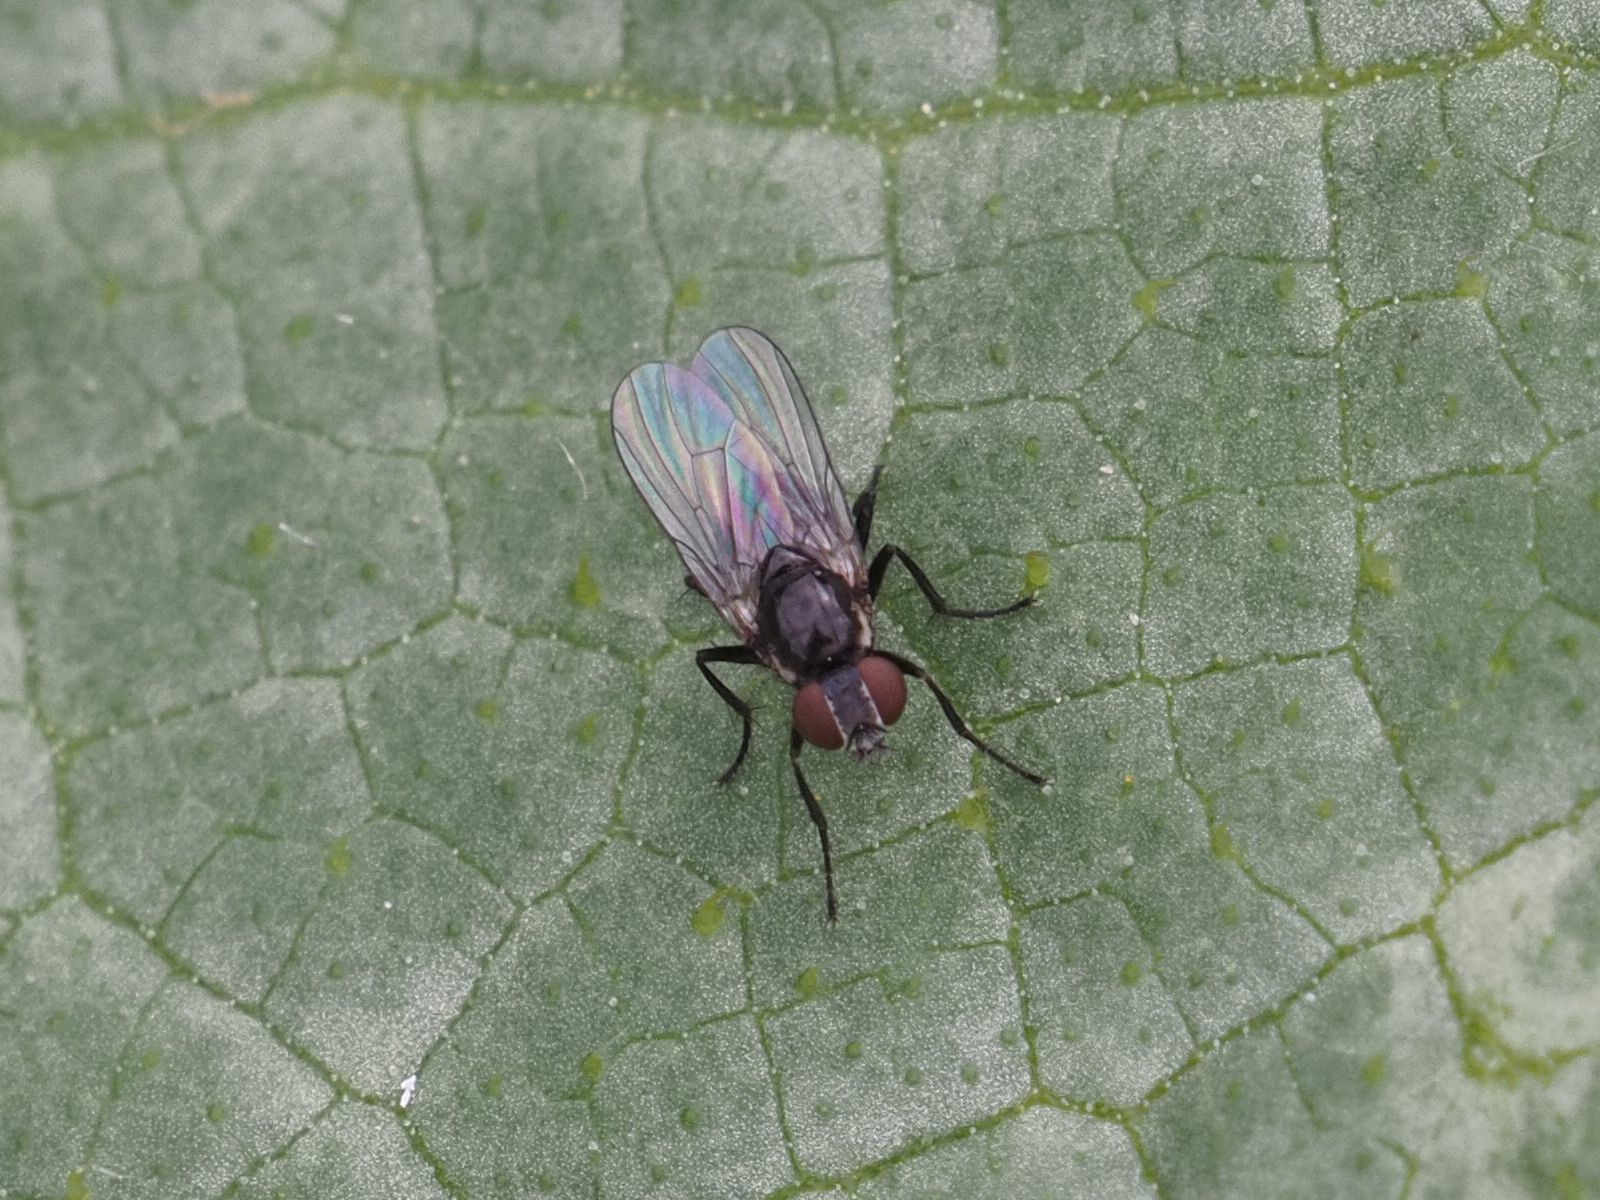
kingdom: Animalia
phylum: Arthropoda
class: Insecta
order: Diptera
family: Muscidae
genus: Coenosia
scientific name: Coenosia atra
